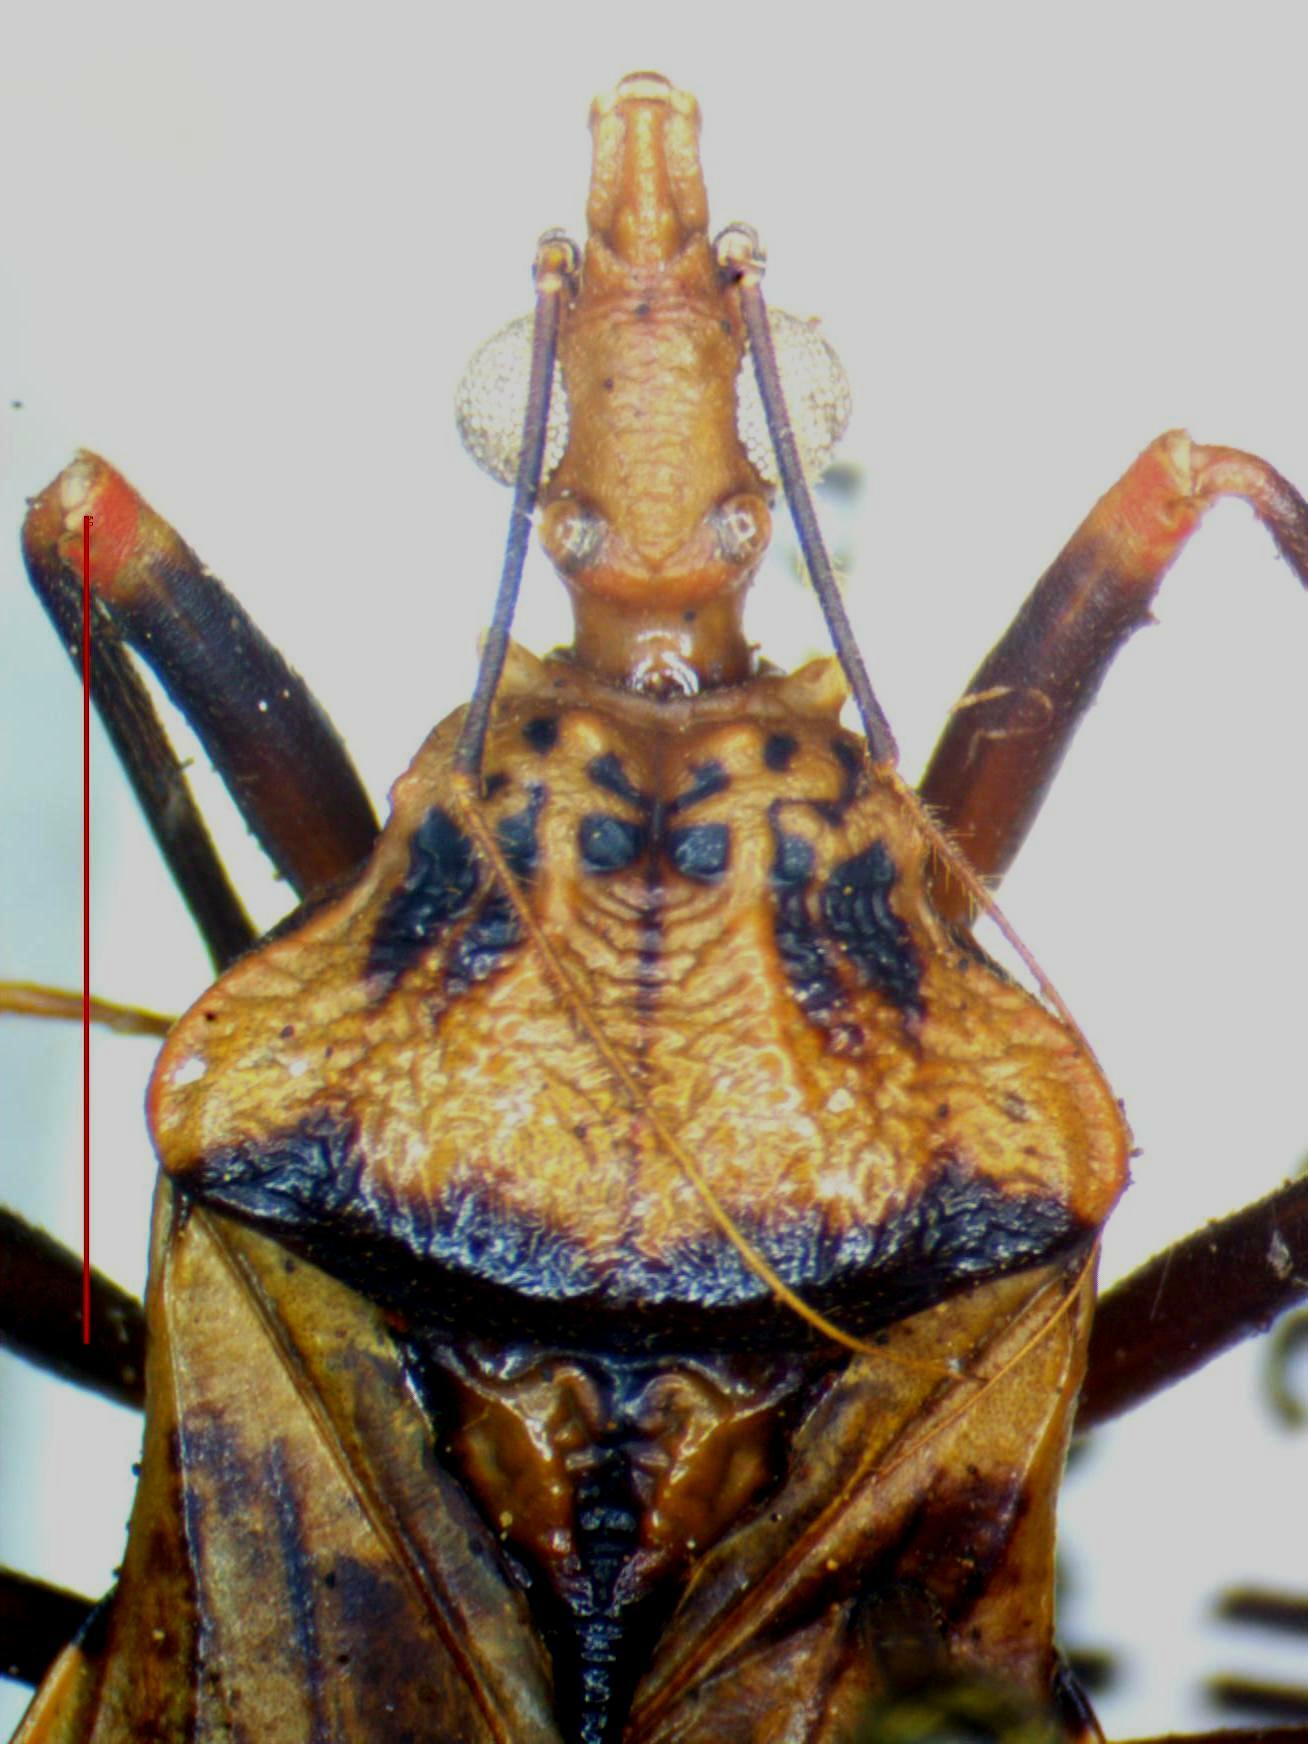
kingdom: Animalia
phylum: Arthropoda
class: Insecta
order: Hemiptera
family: Reduviidae
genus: Panstrongylus
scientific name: Panstrongylus geniculatus
